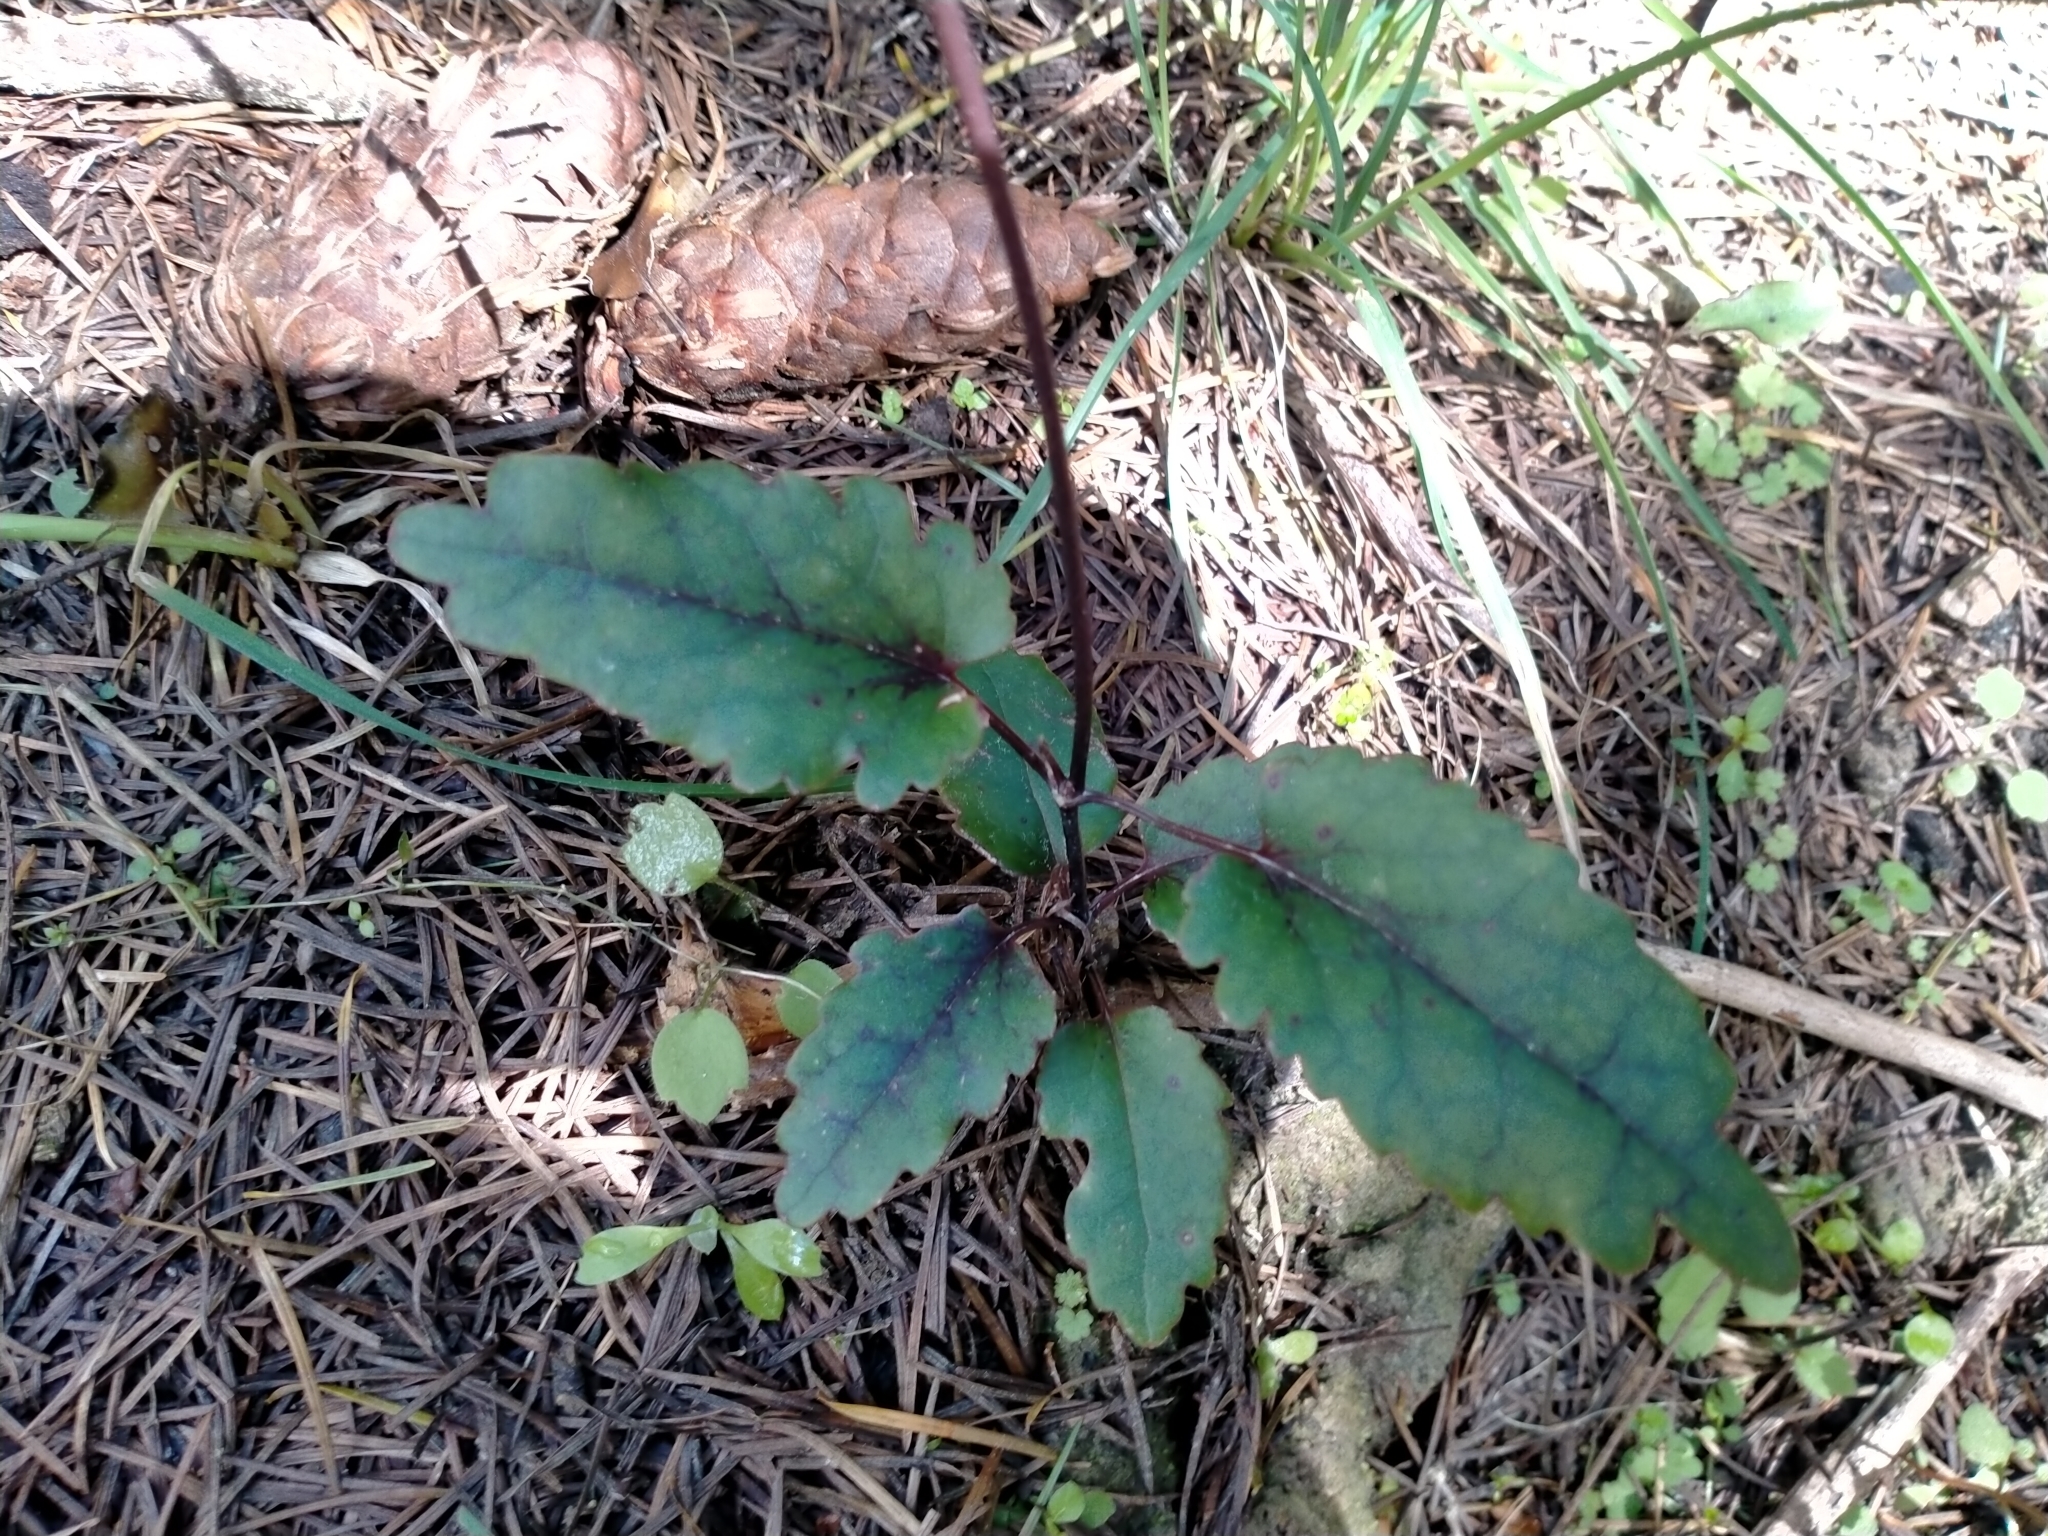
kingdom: Plantae
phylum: Tracheophyta
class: Magnoliopsida
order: Ranunculales
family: Ranunculaceae
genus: Clematis
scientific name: Clematis paniculata
